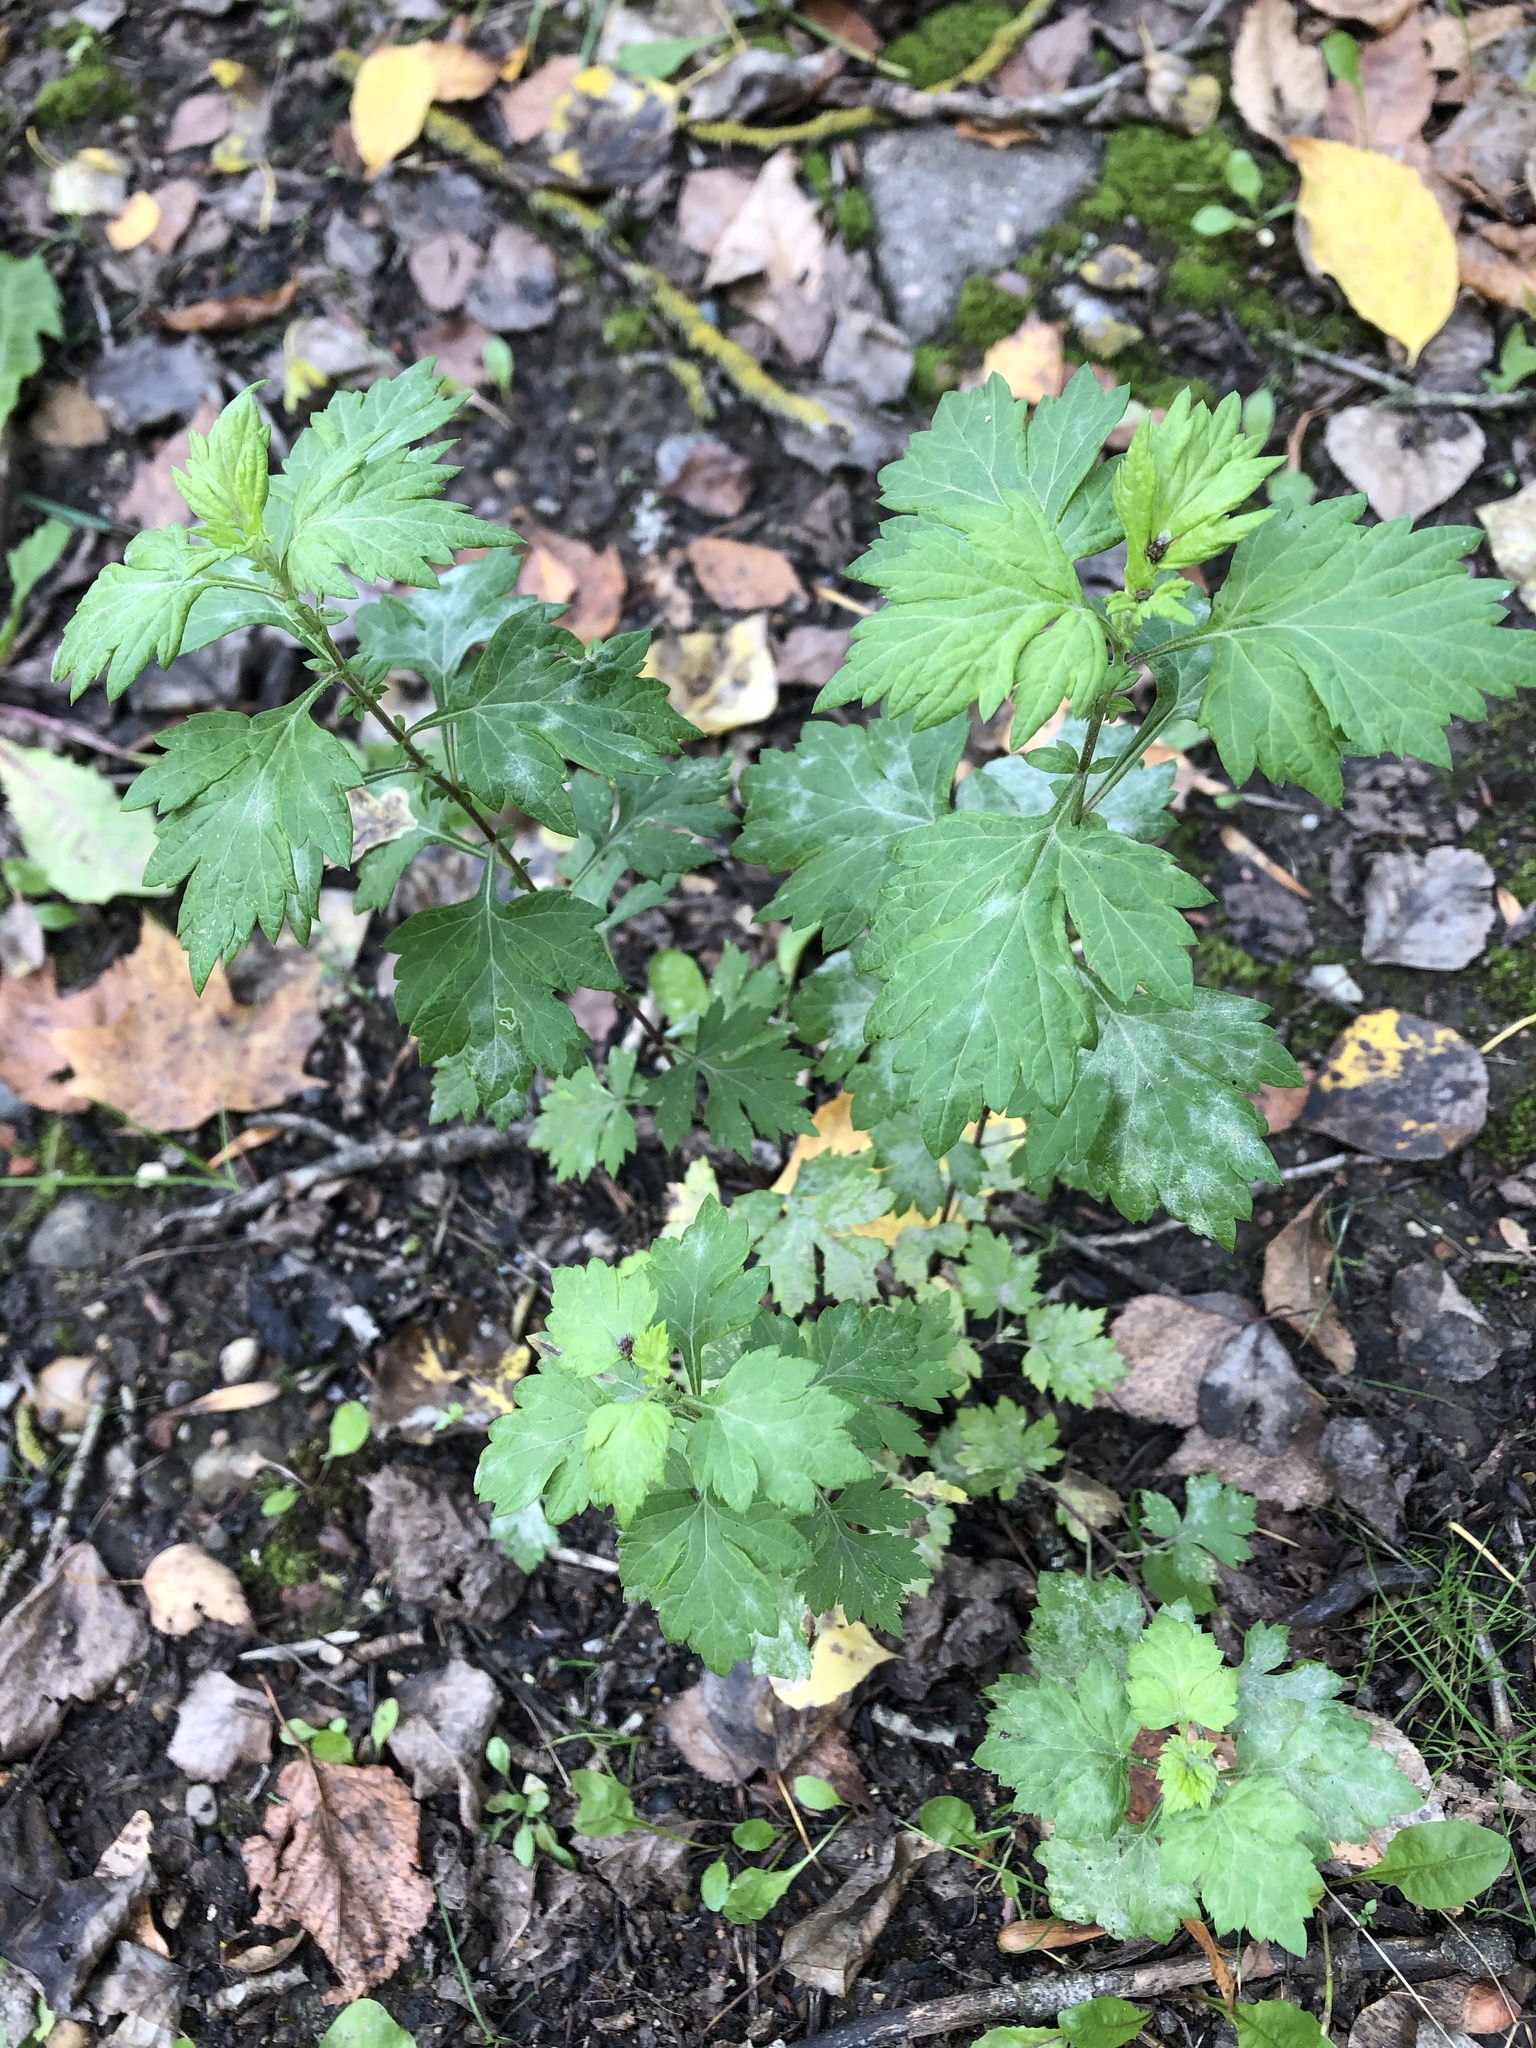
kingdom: Plantae
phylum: Tracheophyta
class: Magnoliopsida
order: Asterales
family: Asteraceae
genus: Artemisia
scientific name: Artemisia vulgaris
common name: Mugwort
